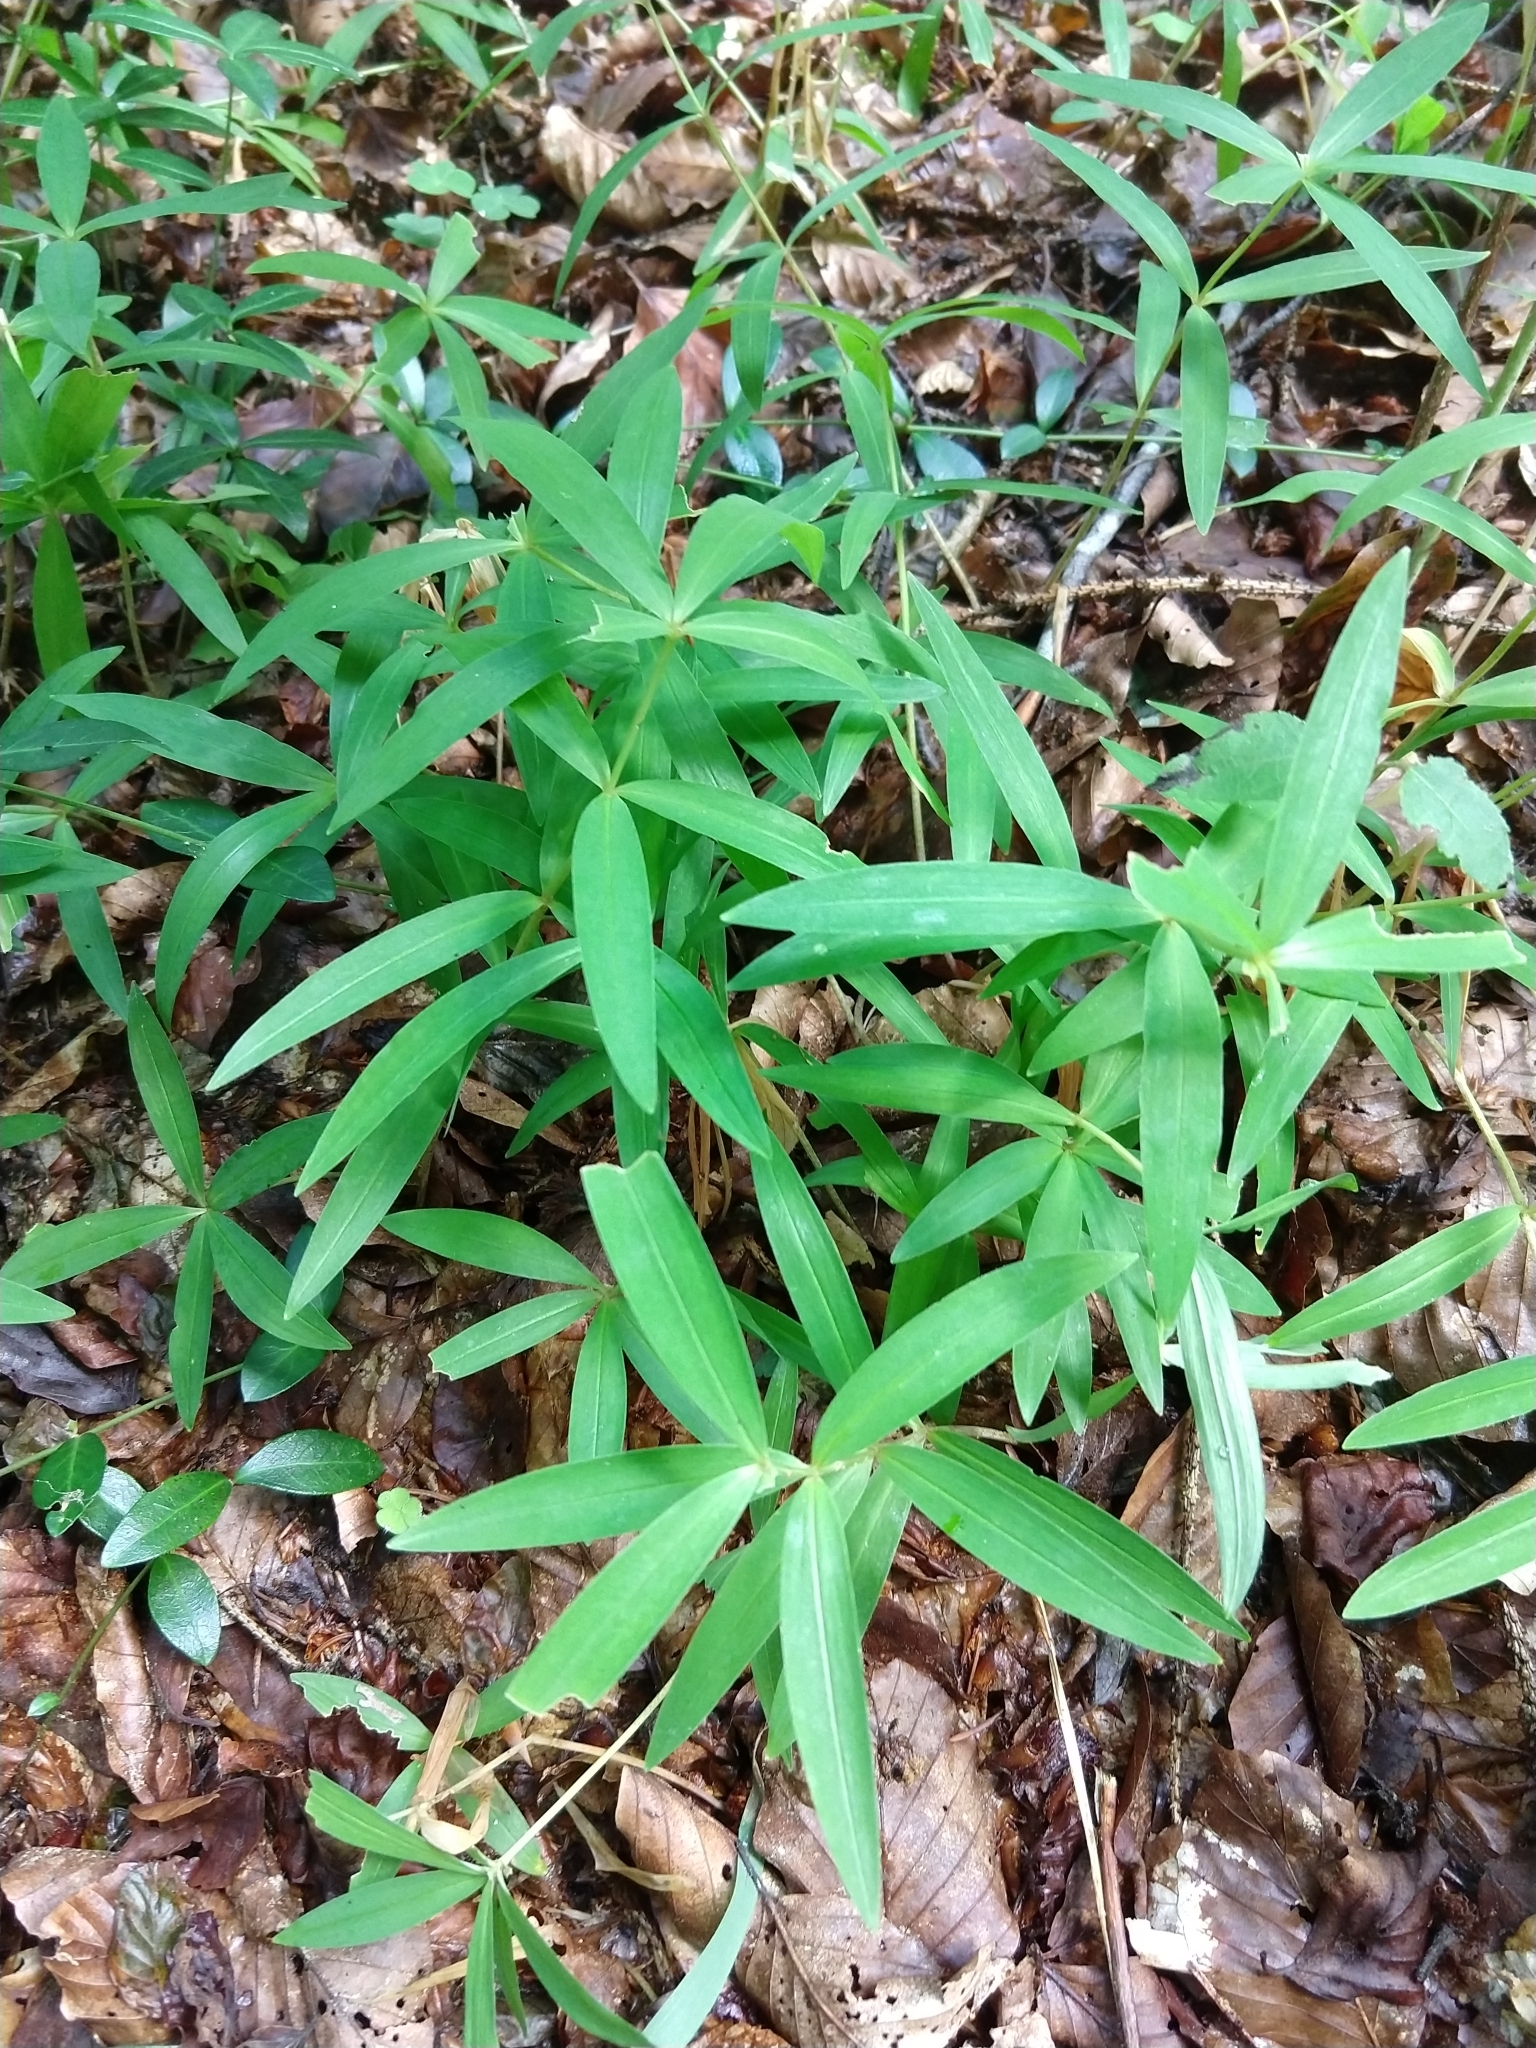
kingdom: Plantae
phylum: Tracheophyta
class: Liliopsida
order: Asparagales
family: Asparagaceae
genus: Polygonatum
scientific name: Polygonatum verticillatum
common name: Whorled solomon's-seal
